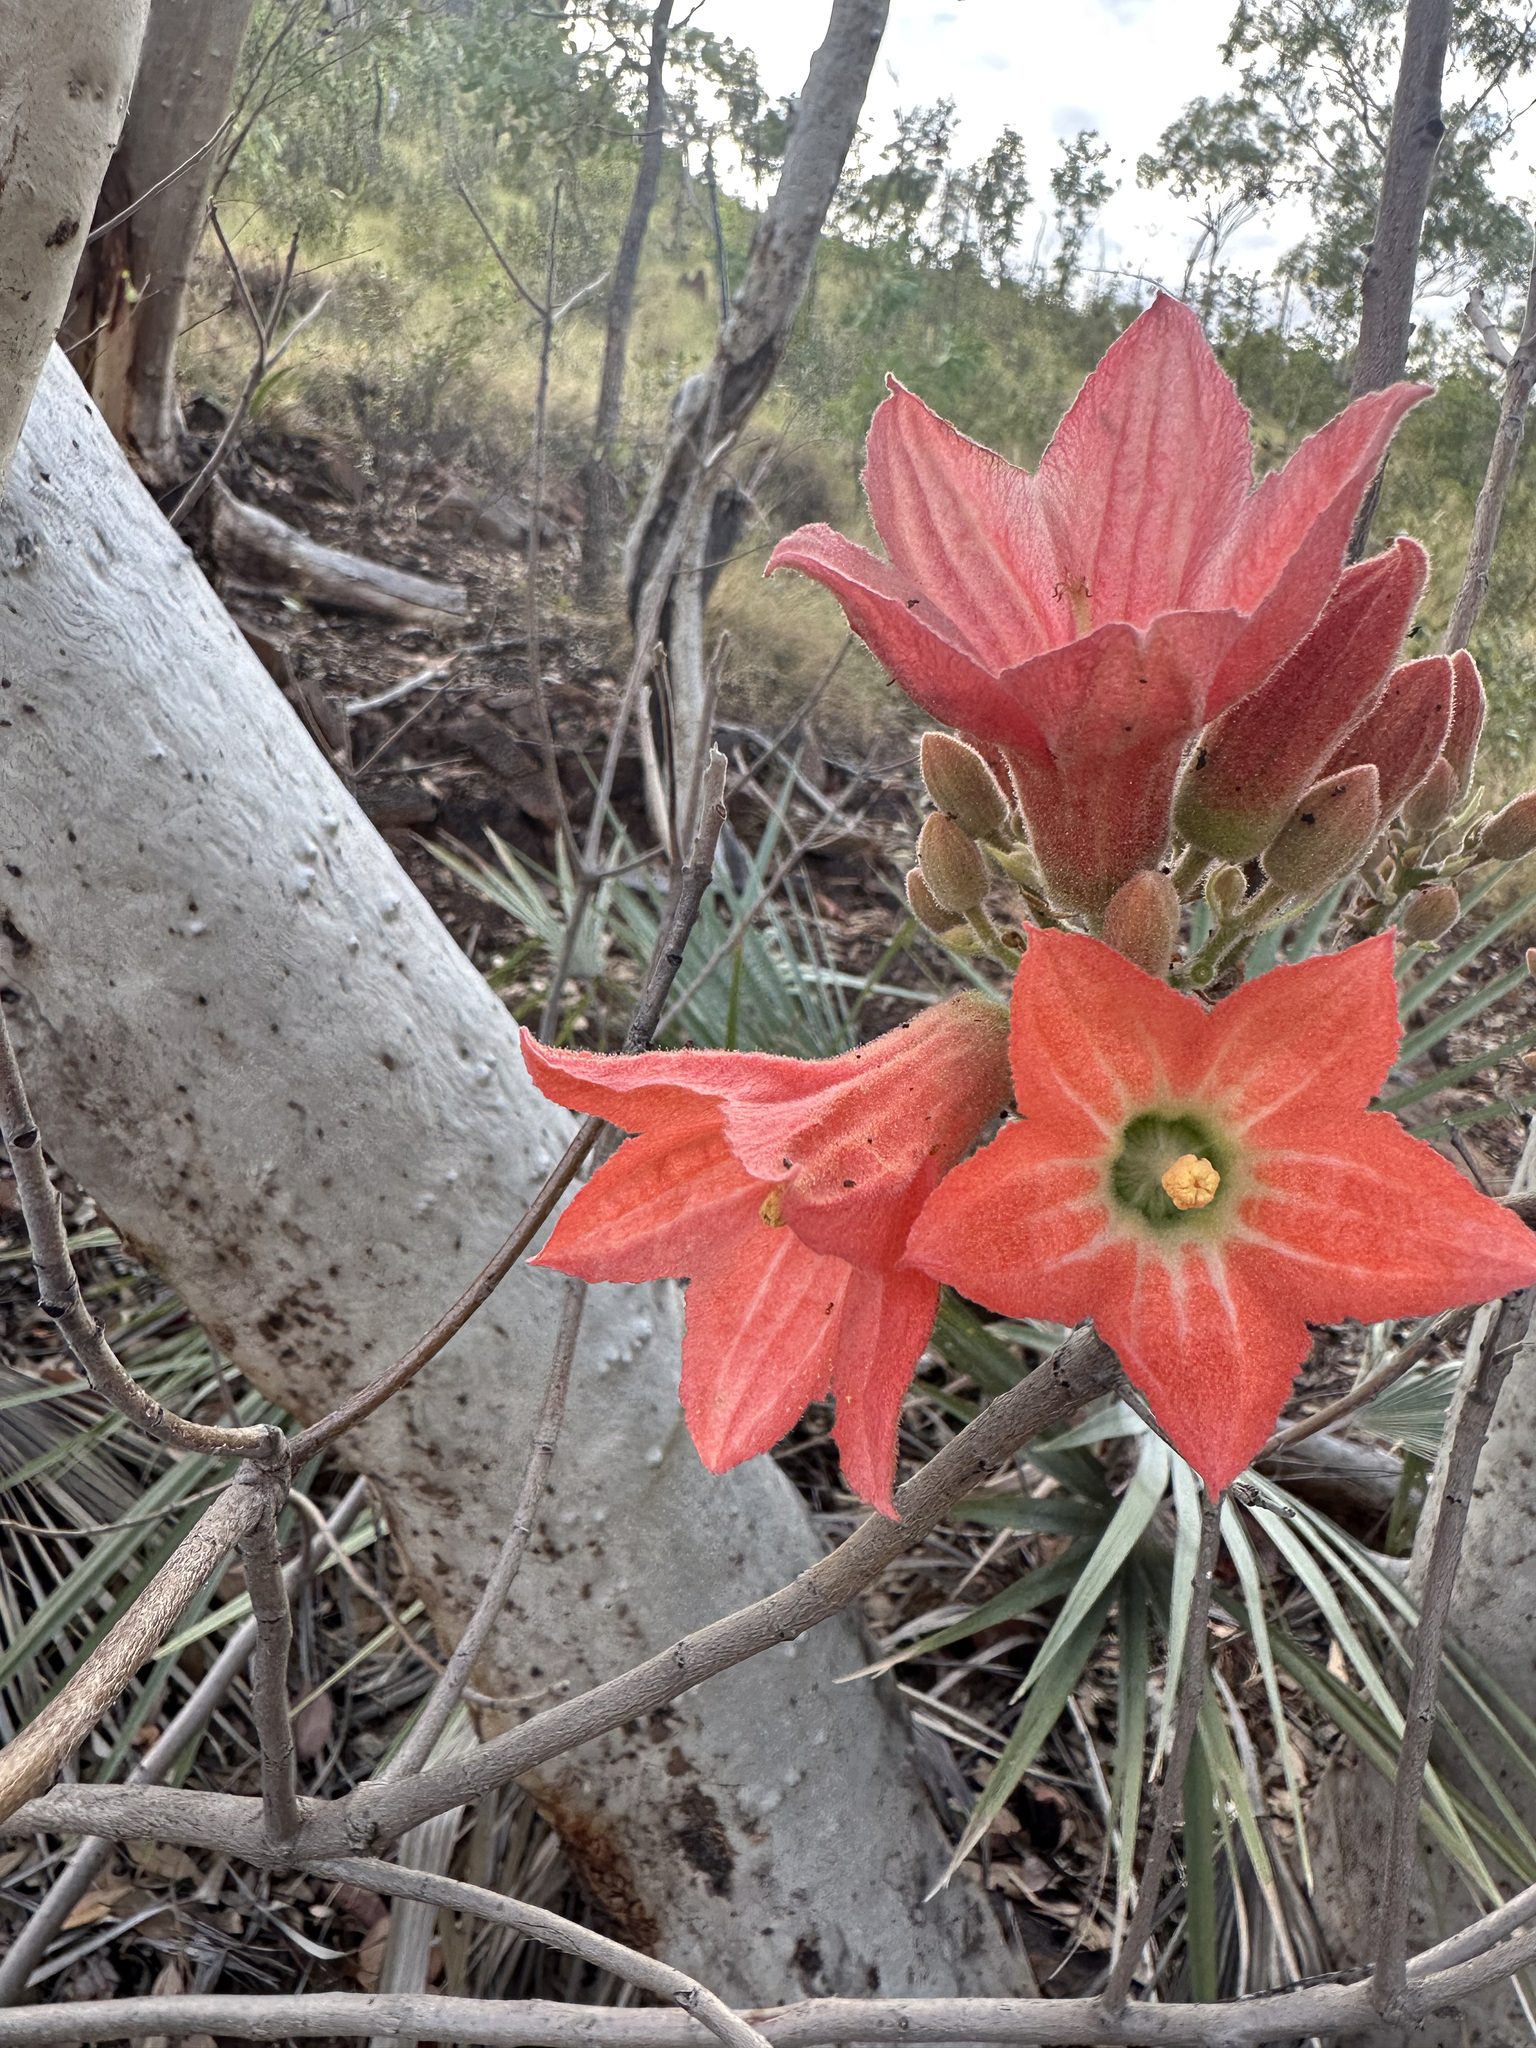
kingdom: Plantae
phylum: Tracheophyta
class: Magnoliopsida
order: Malvales
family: Malvaceae
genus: Brachychiton
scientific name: Brachychiton spectabilis
